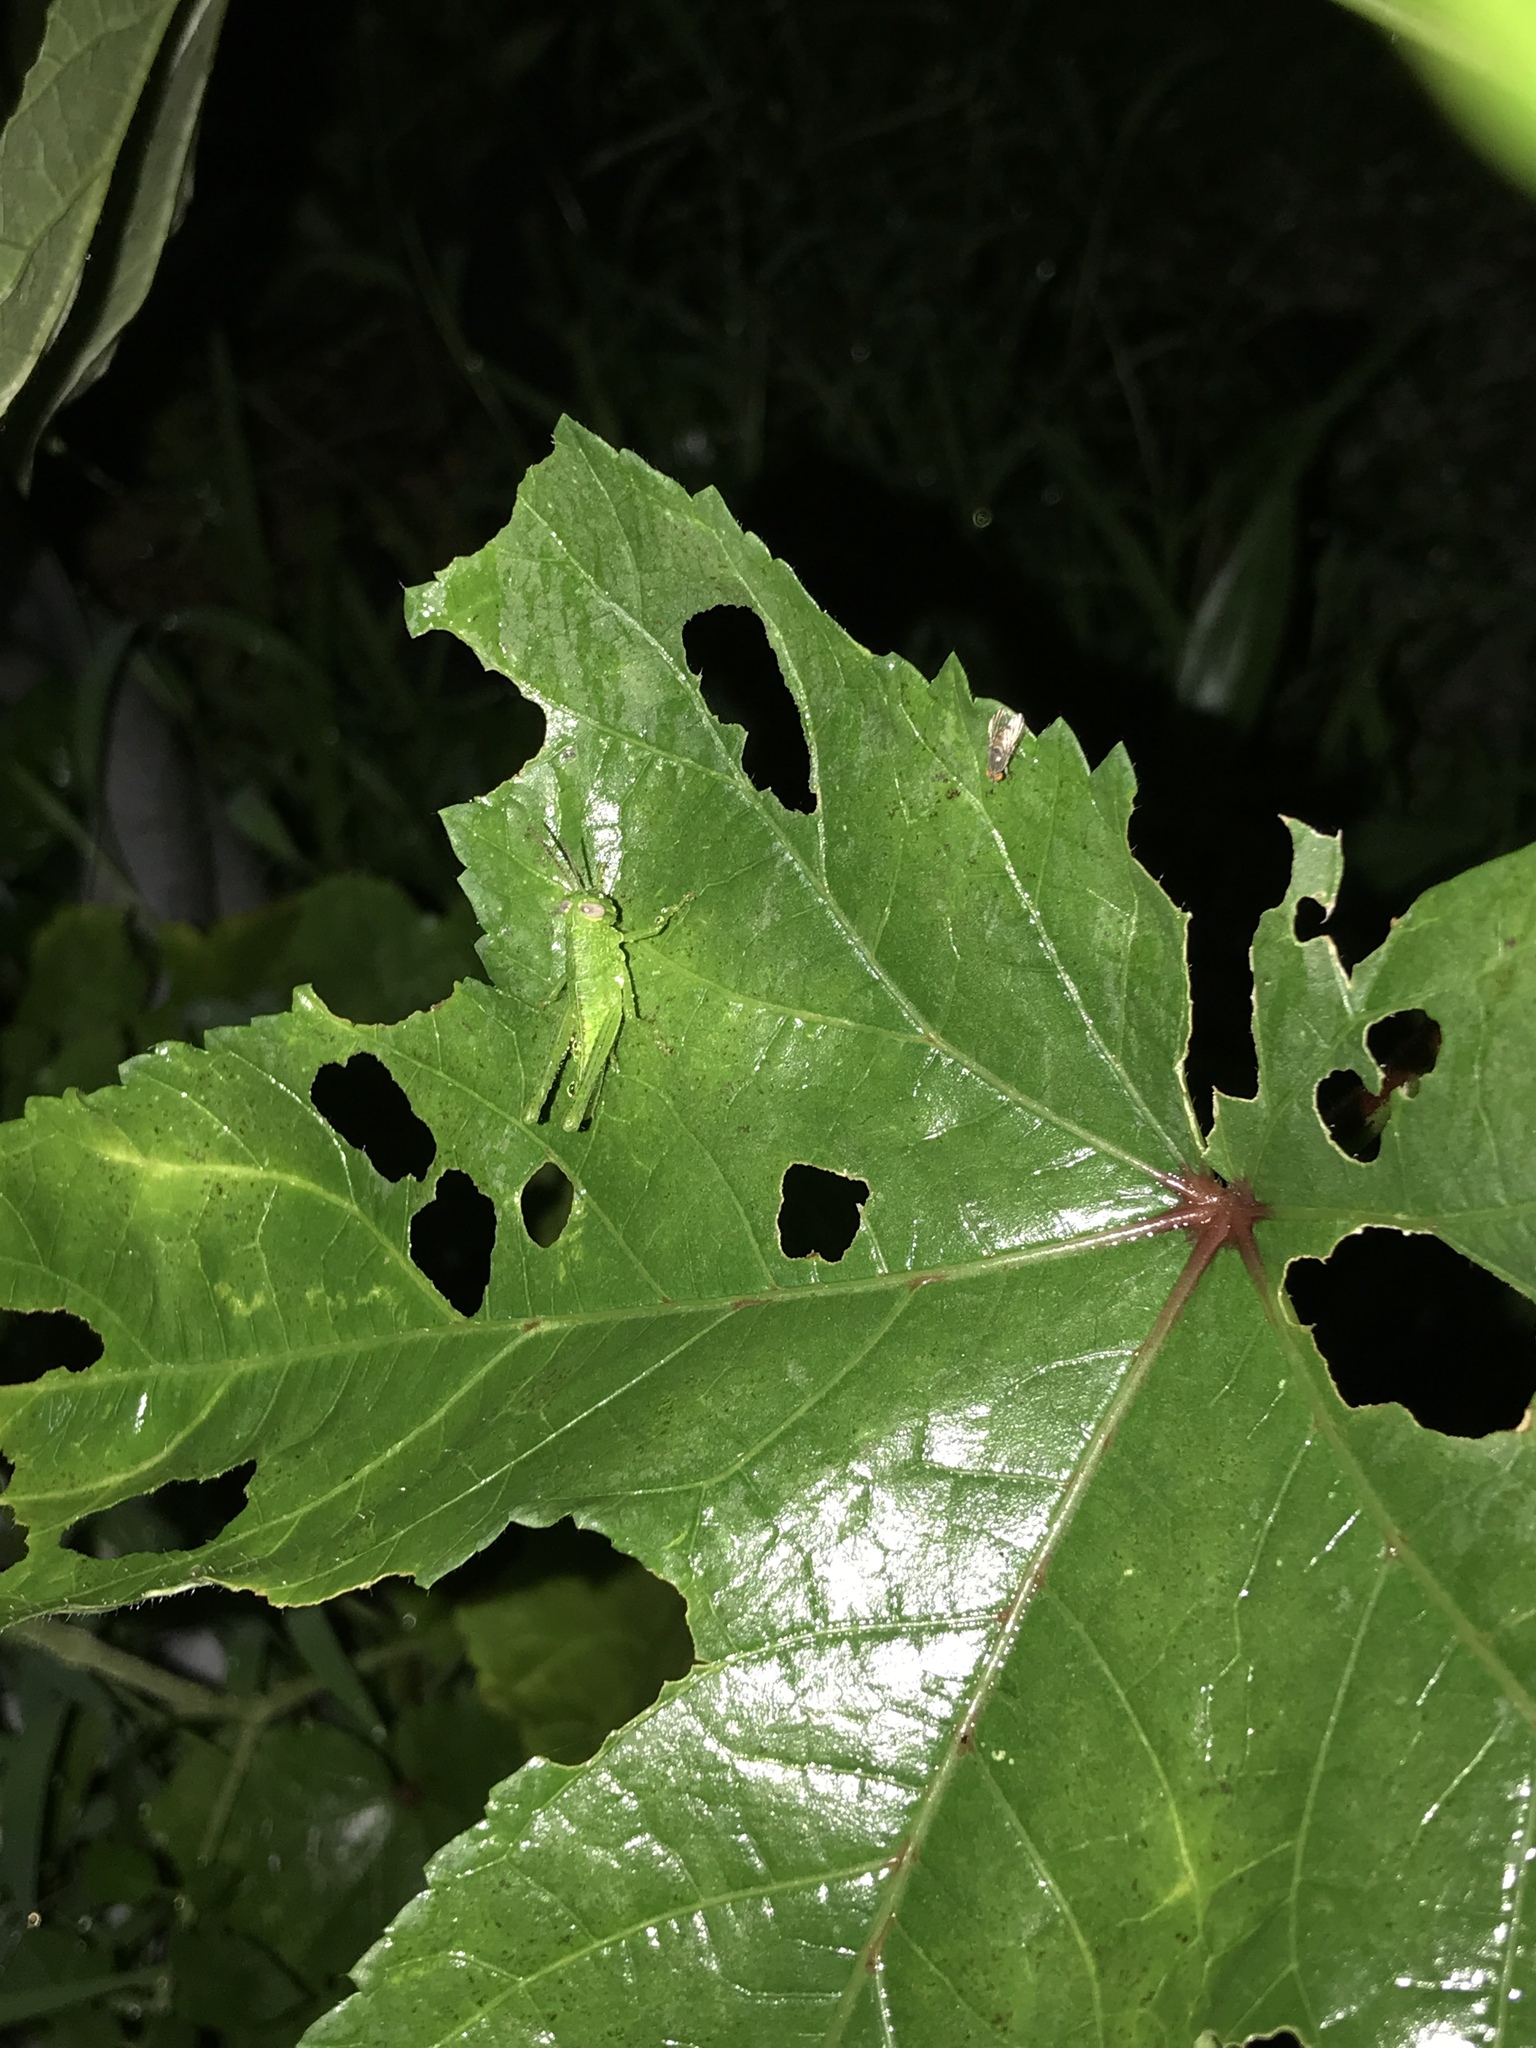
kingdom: Animalia
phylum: Arthropoda
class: Insecta
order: Orthoptera
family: Acrididae
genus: Valanga
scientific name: Valanga nigricornis
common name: Javanese bird grasshopper
